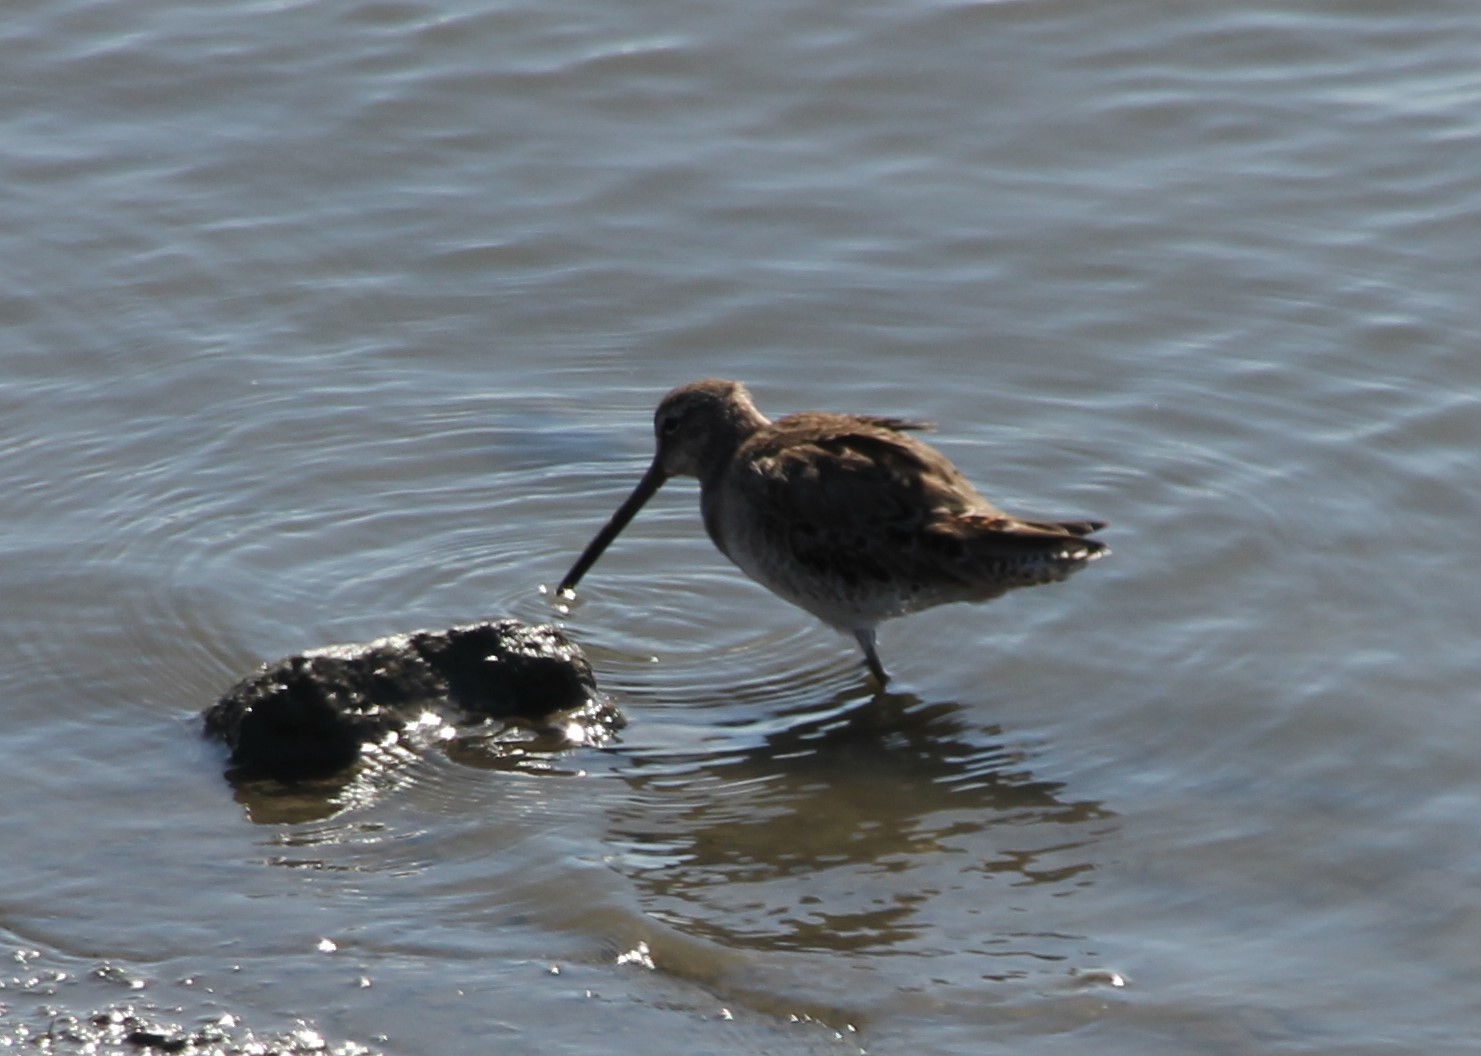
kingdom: Animalia
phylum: Chordata
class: Aves
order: Charadriiformes
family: Scolopacidae
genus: Limnodromus
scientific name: Limnodromus scolopaceus
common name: Long-billed dowitcher
